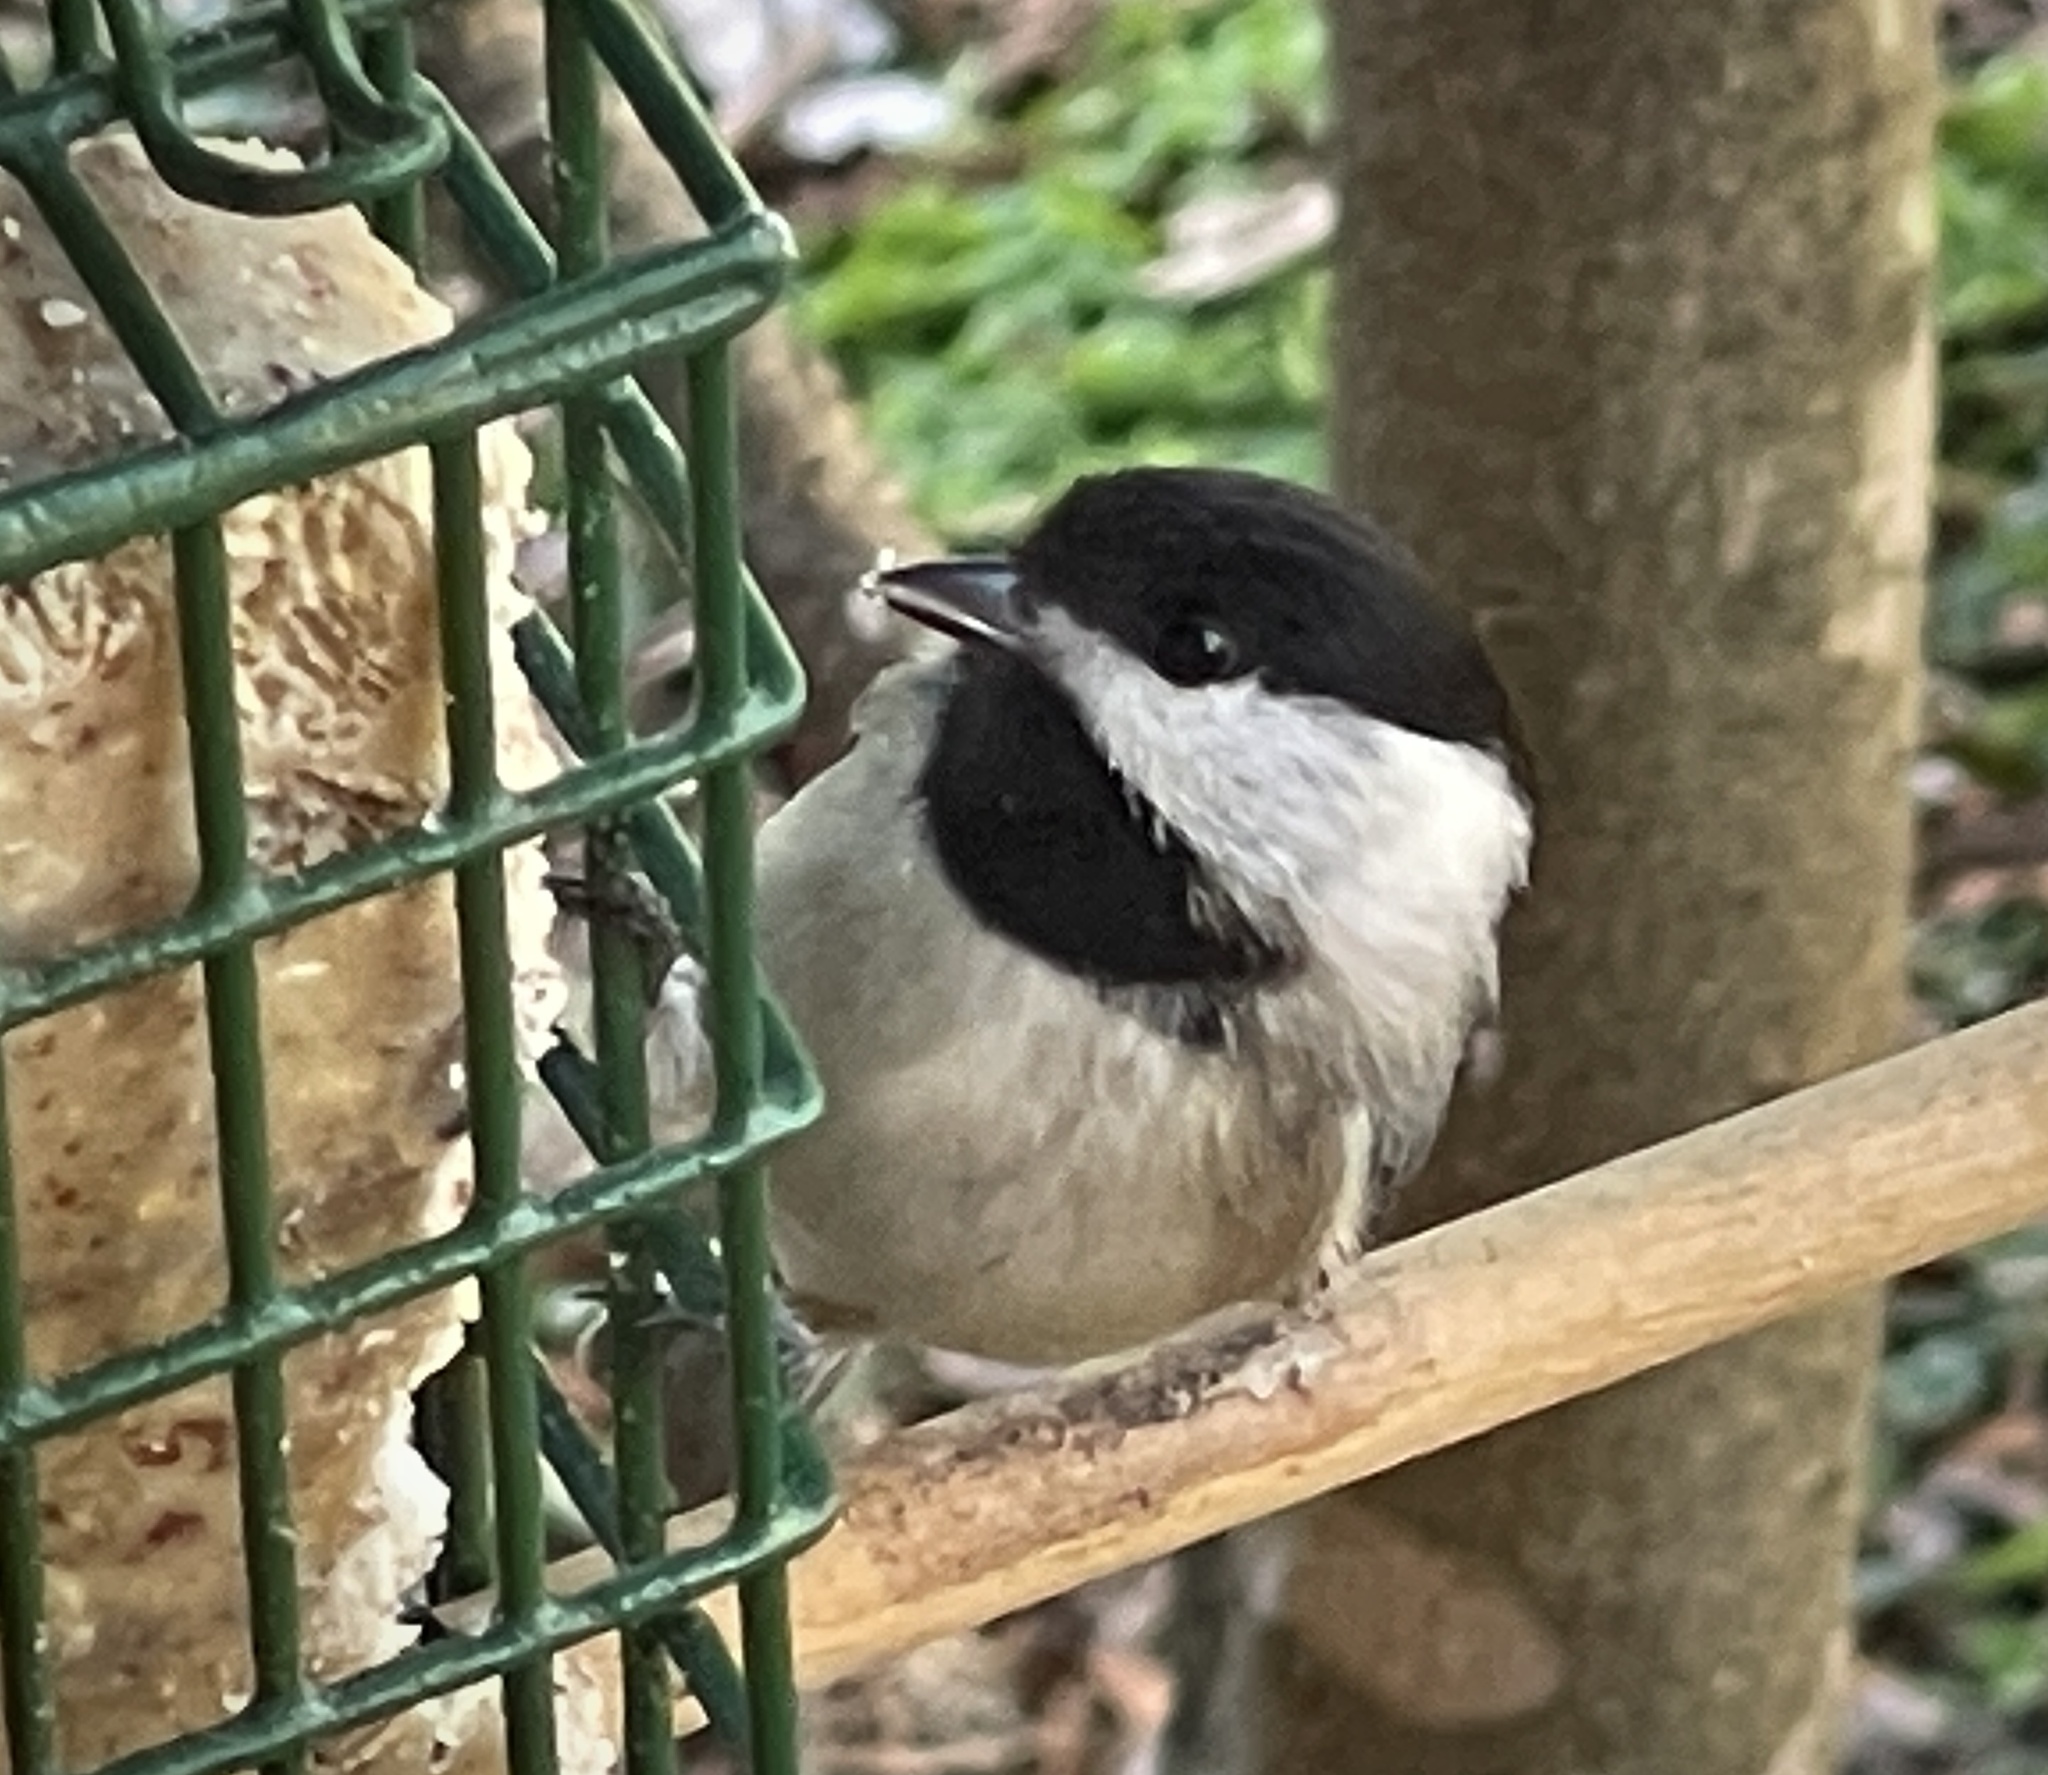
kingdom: Animalia
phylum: Chordata
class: Aves
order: Passeriformes
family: Paridae
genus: Poecile
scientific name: Poecile carolinensis
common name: Carolina chickadee
